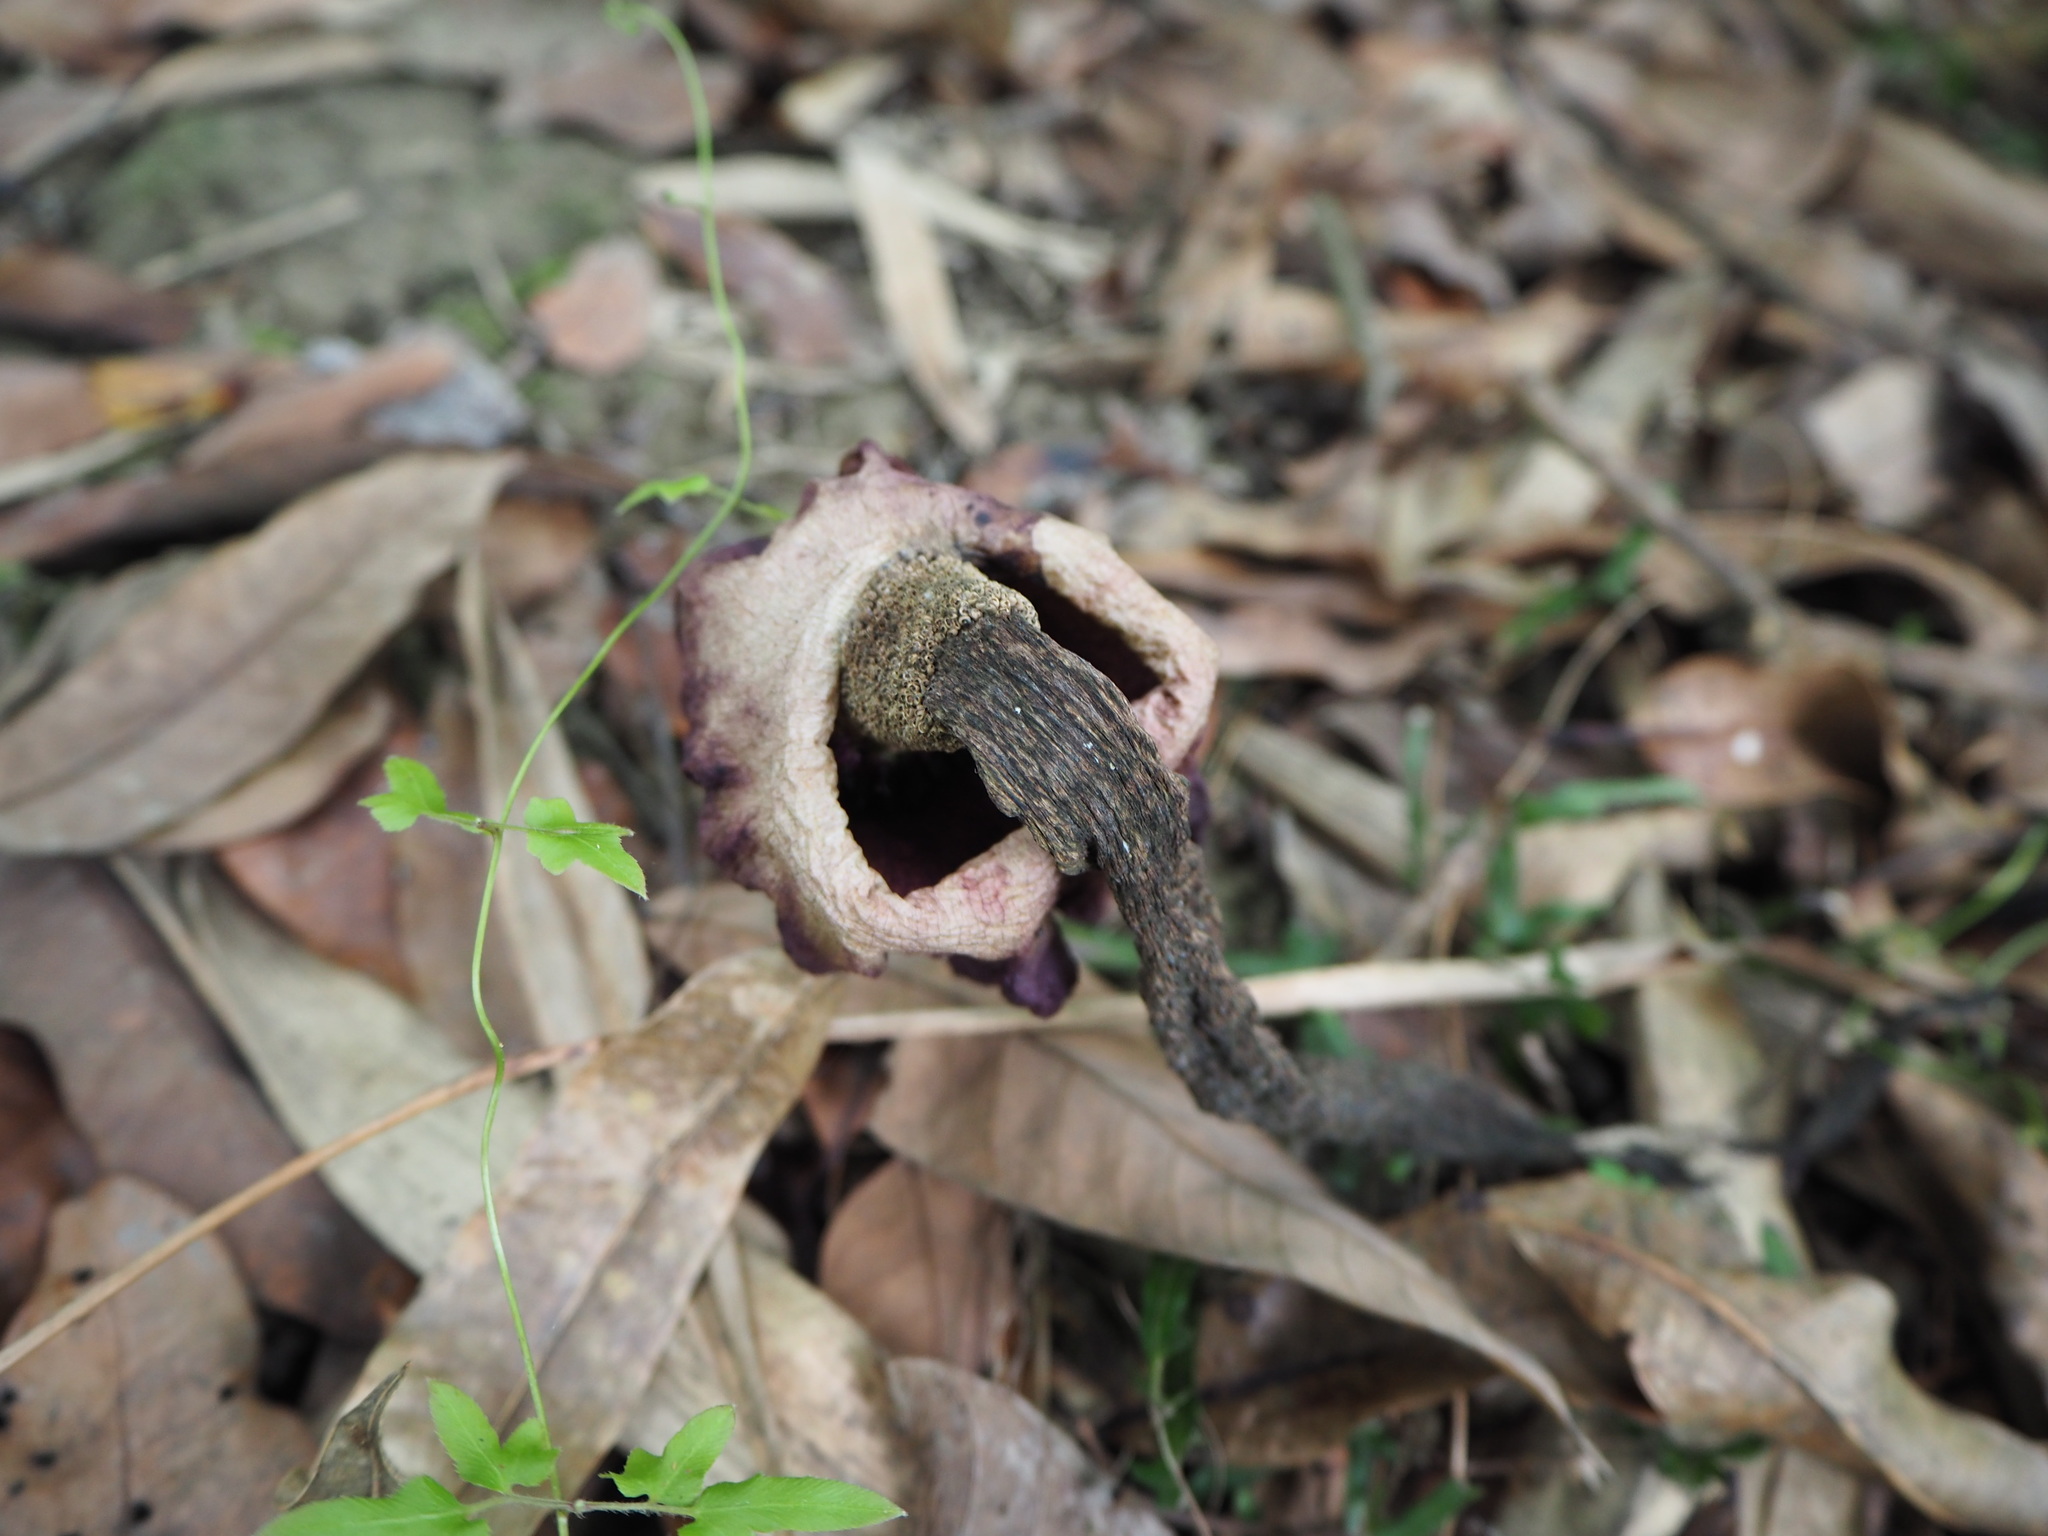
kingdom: Plantae
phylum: Tracheophyta
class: Liliopsida
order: Alismatales
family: Araceae
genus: Amorphophallus
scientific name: Amorphophallus henryi
